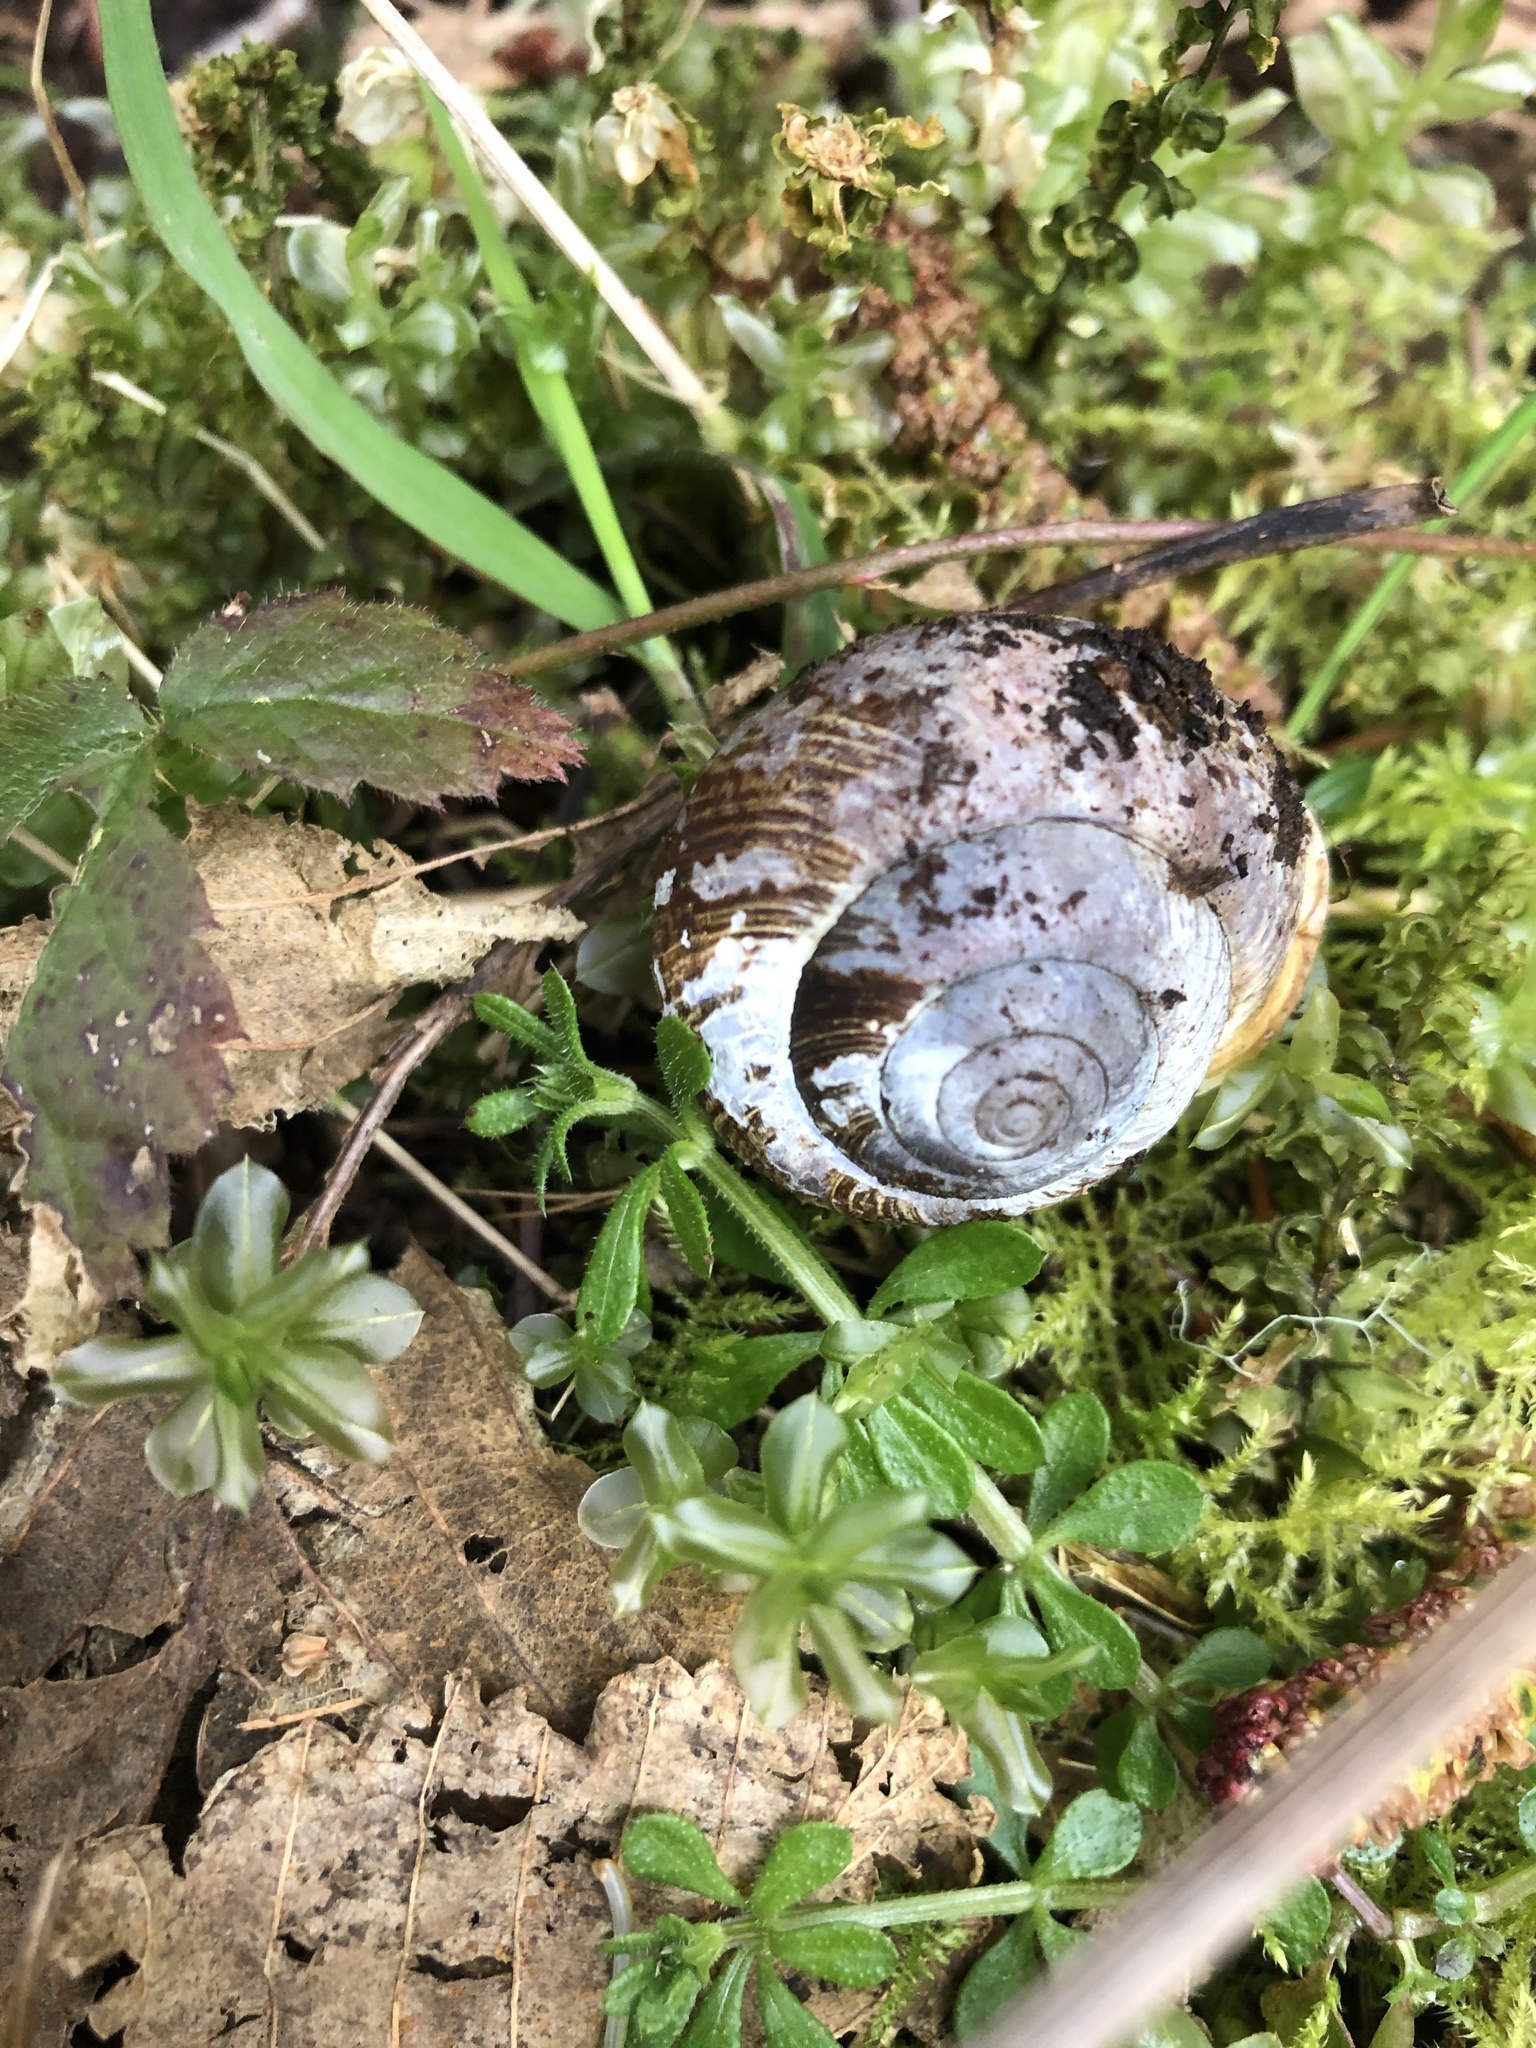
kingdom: Animalia
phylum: Mollusca
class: Gastropoda
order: Stylommatophora
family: Polygyridae
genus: Allogona
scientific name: Allogona townsendiana
